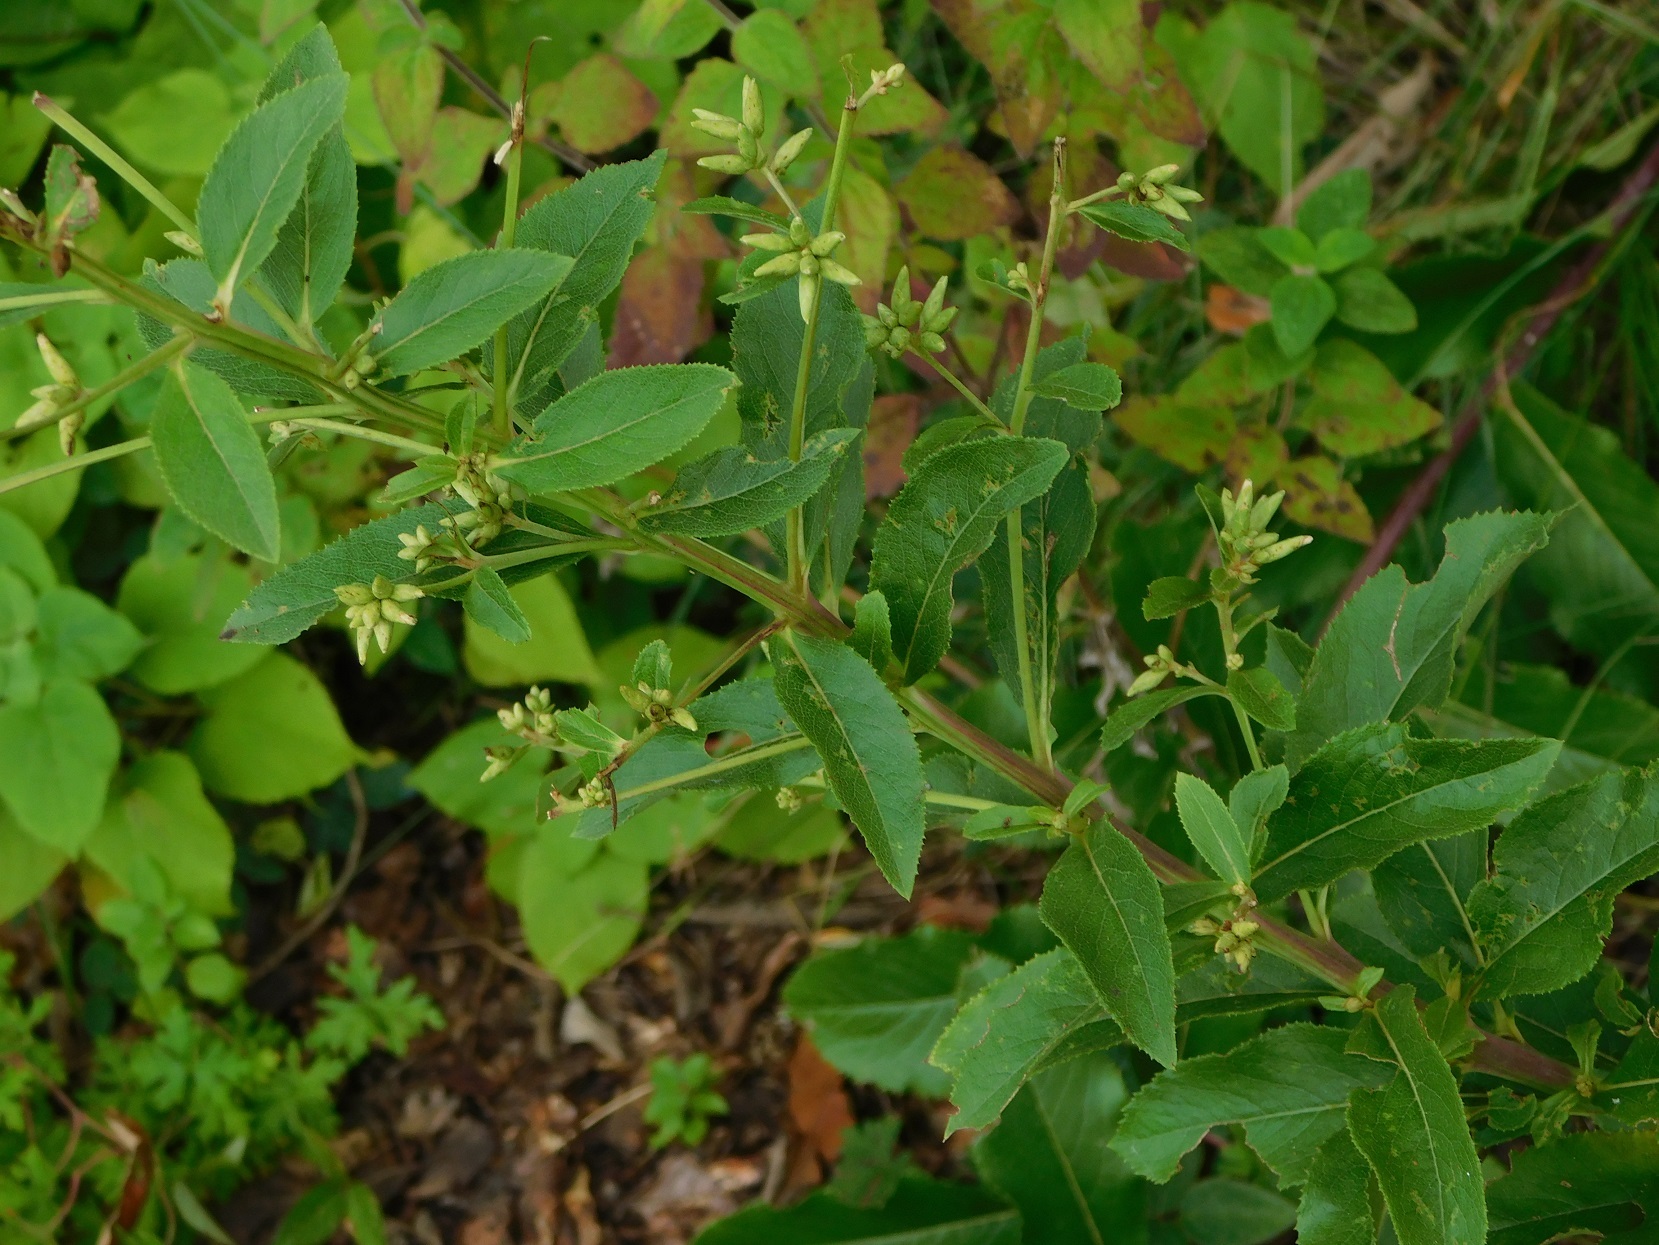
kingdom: Plantae
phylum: Tracheophyta
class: Magnoliopsida
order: Asterales
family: Asteraceae
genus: Lagascea
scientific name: Lagascea helianthifolia
